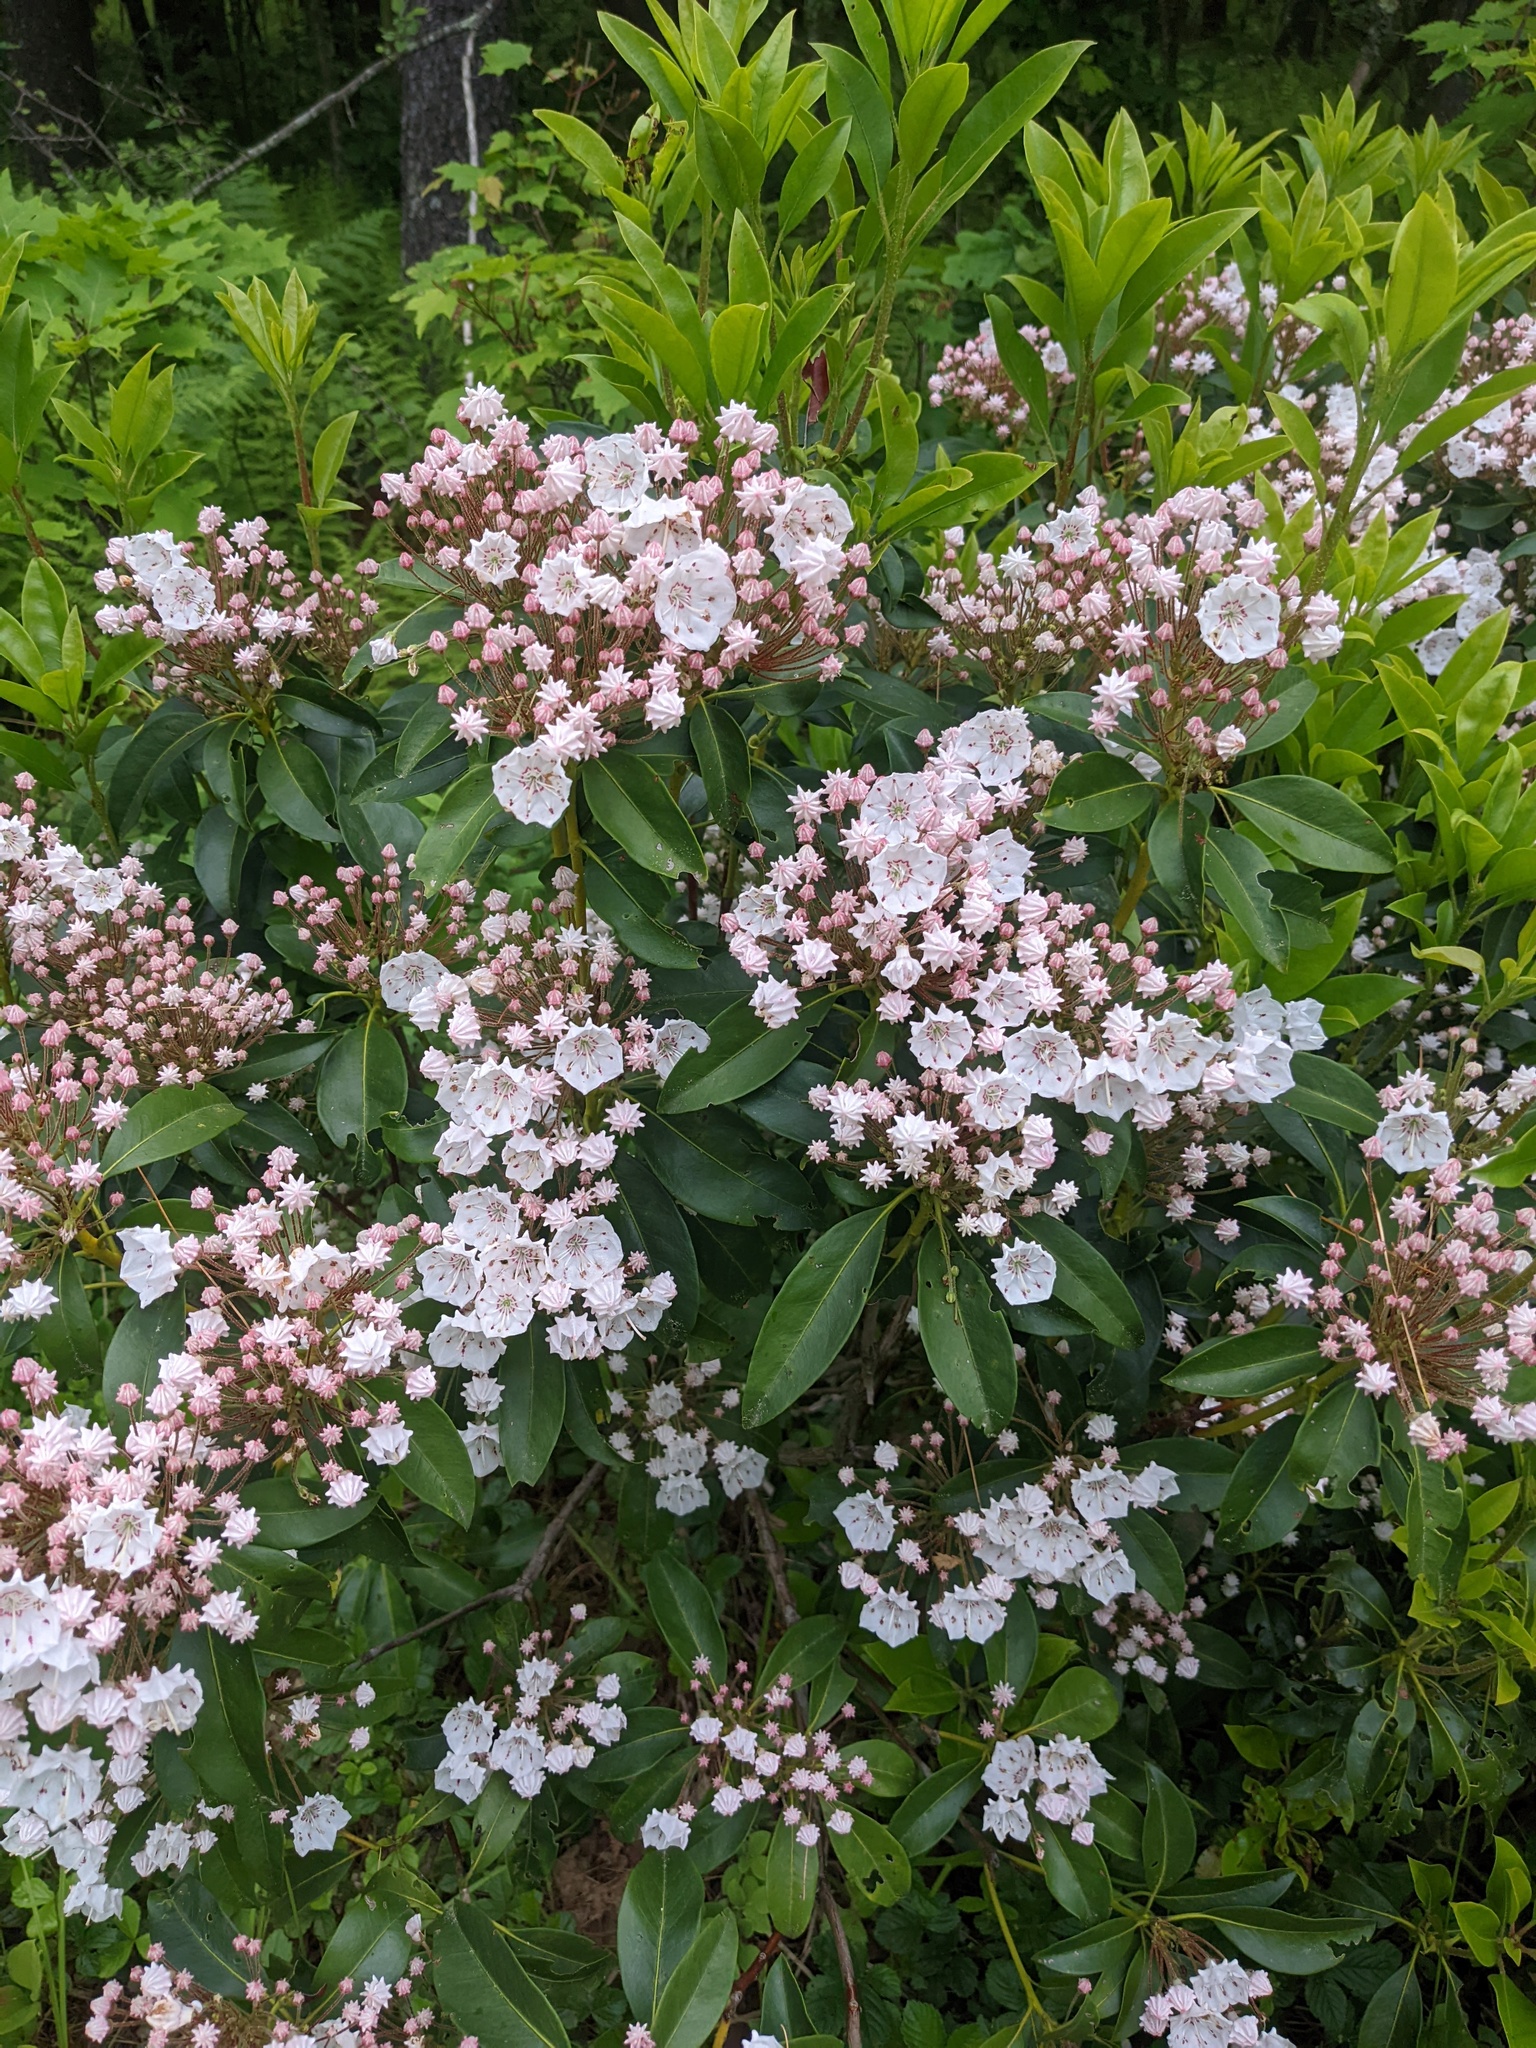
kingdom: Plantae
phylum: Tracheophyta
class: Magnoliopsida
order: Ericales
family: Ericaceae
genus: Kalmia
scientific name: Kalmia latifolia
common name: Mountain-laurel
